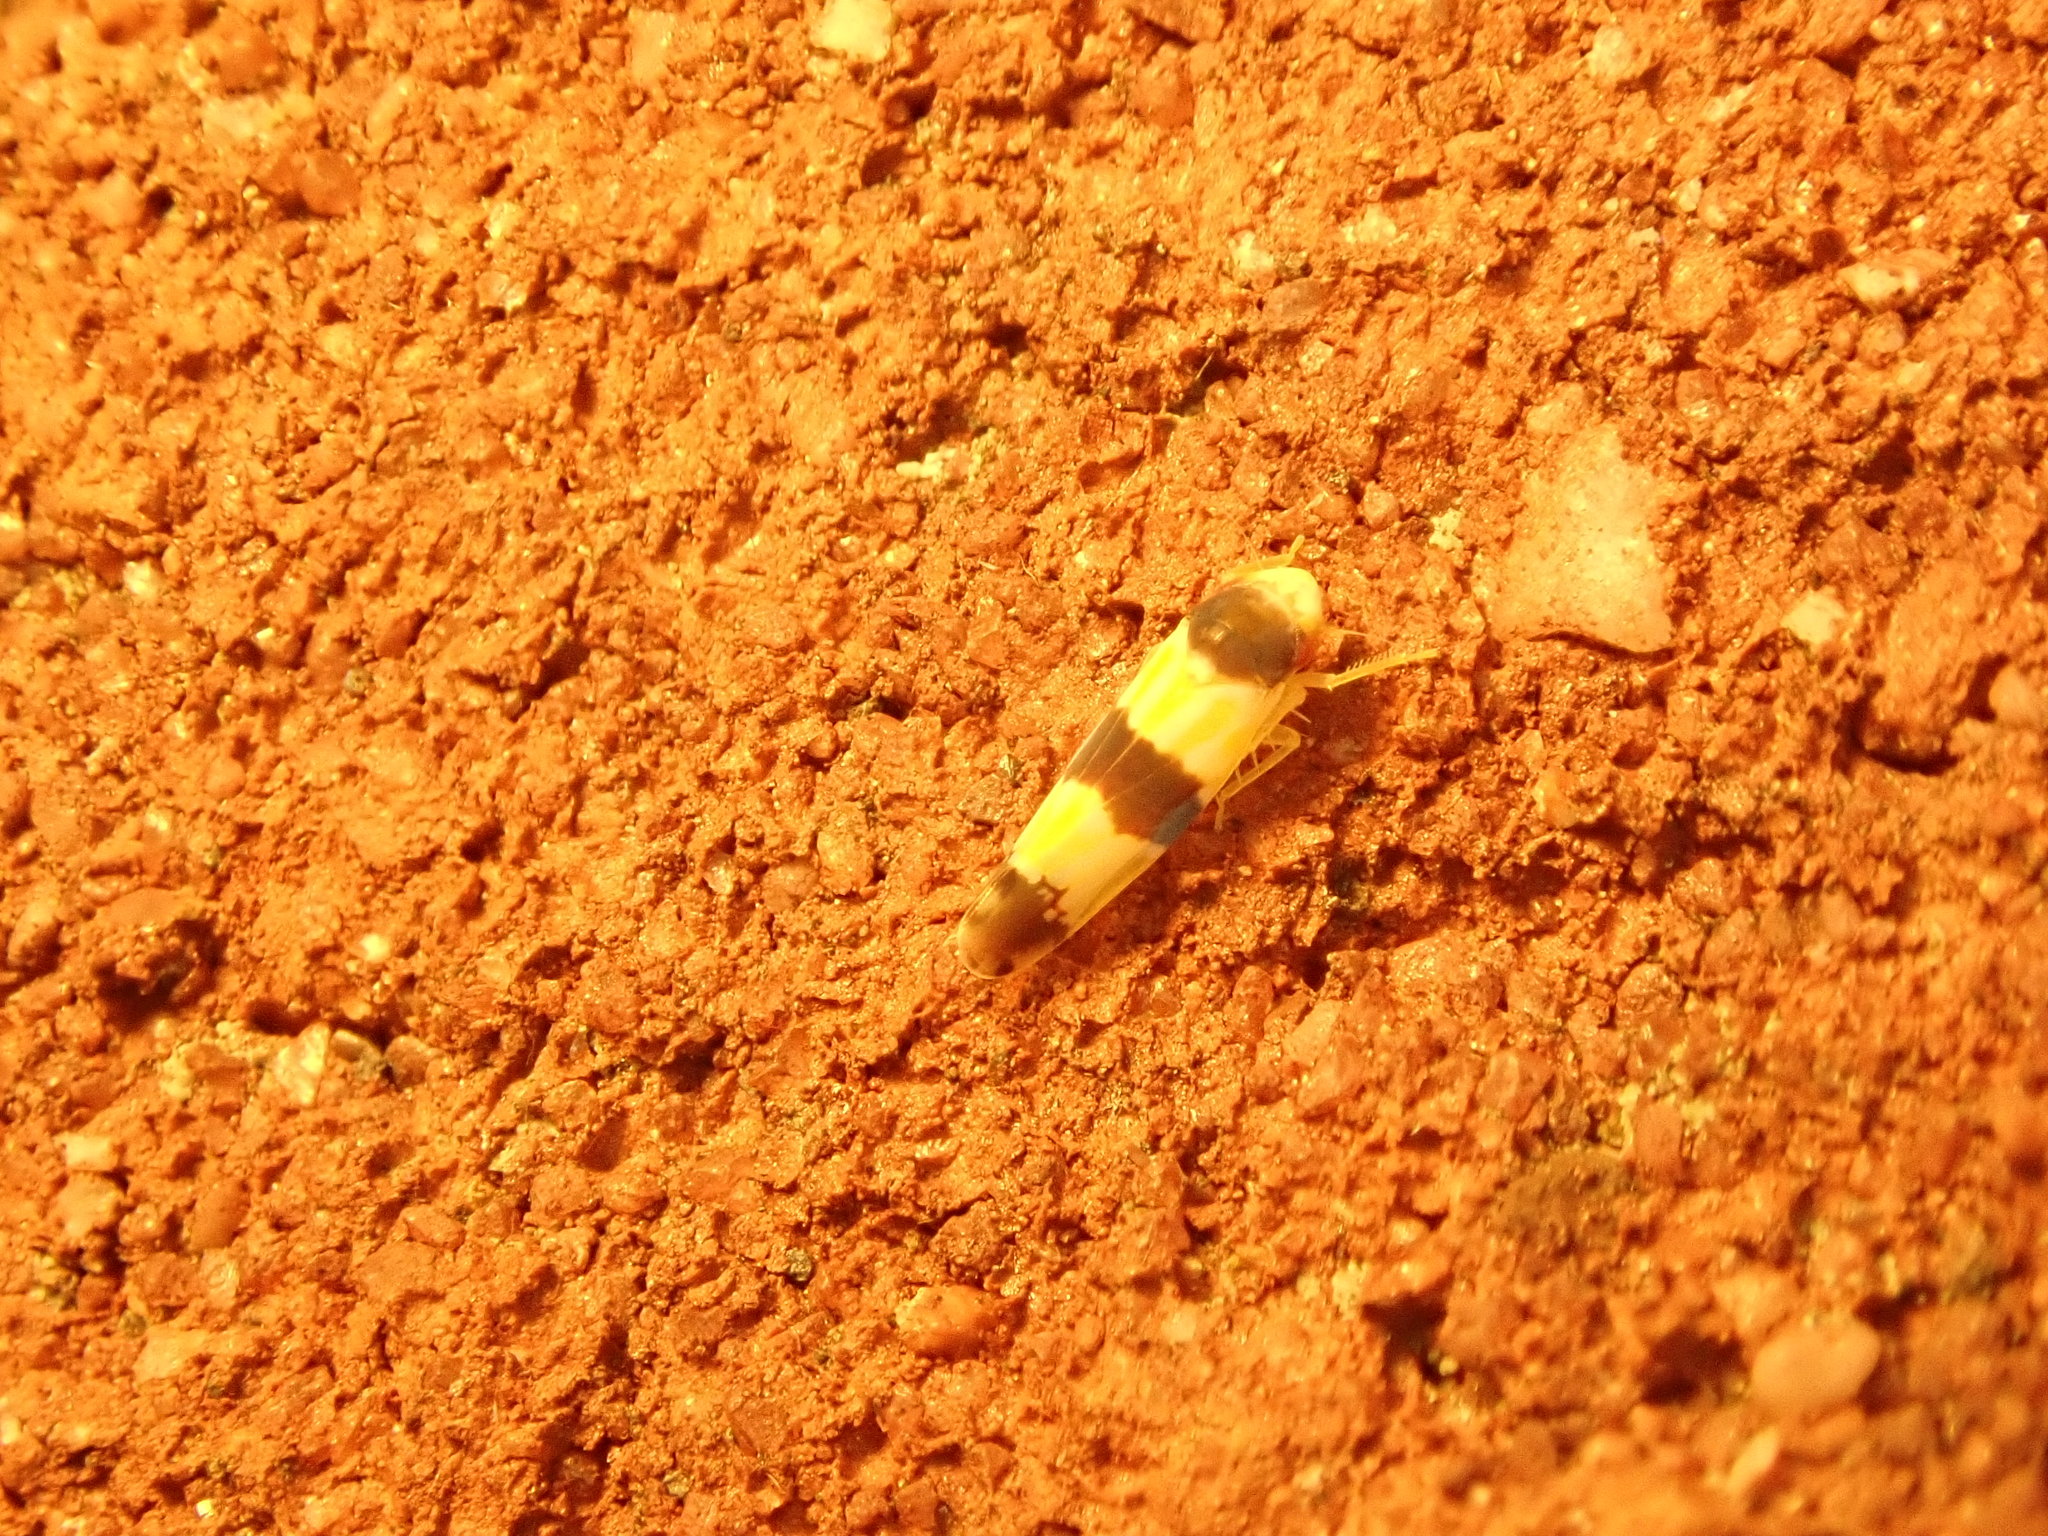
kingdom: Animalia
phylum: Arthropoda
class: Insecta
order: Hemiptera
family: Cicadellidae
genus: Erythroneura
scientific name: Erythroneura tricincta
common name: The threebanded grape leafhopper
